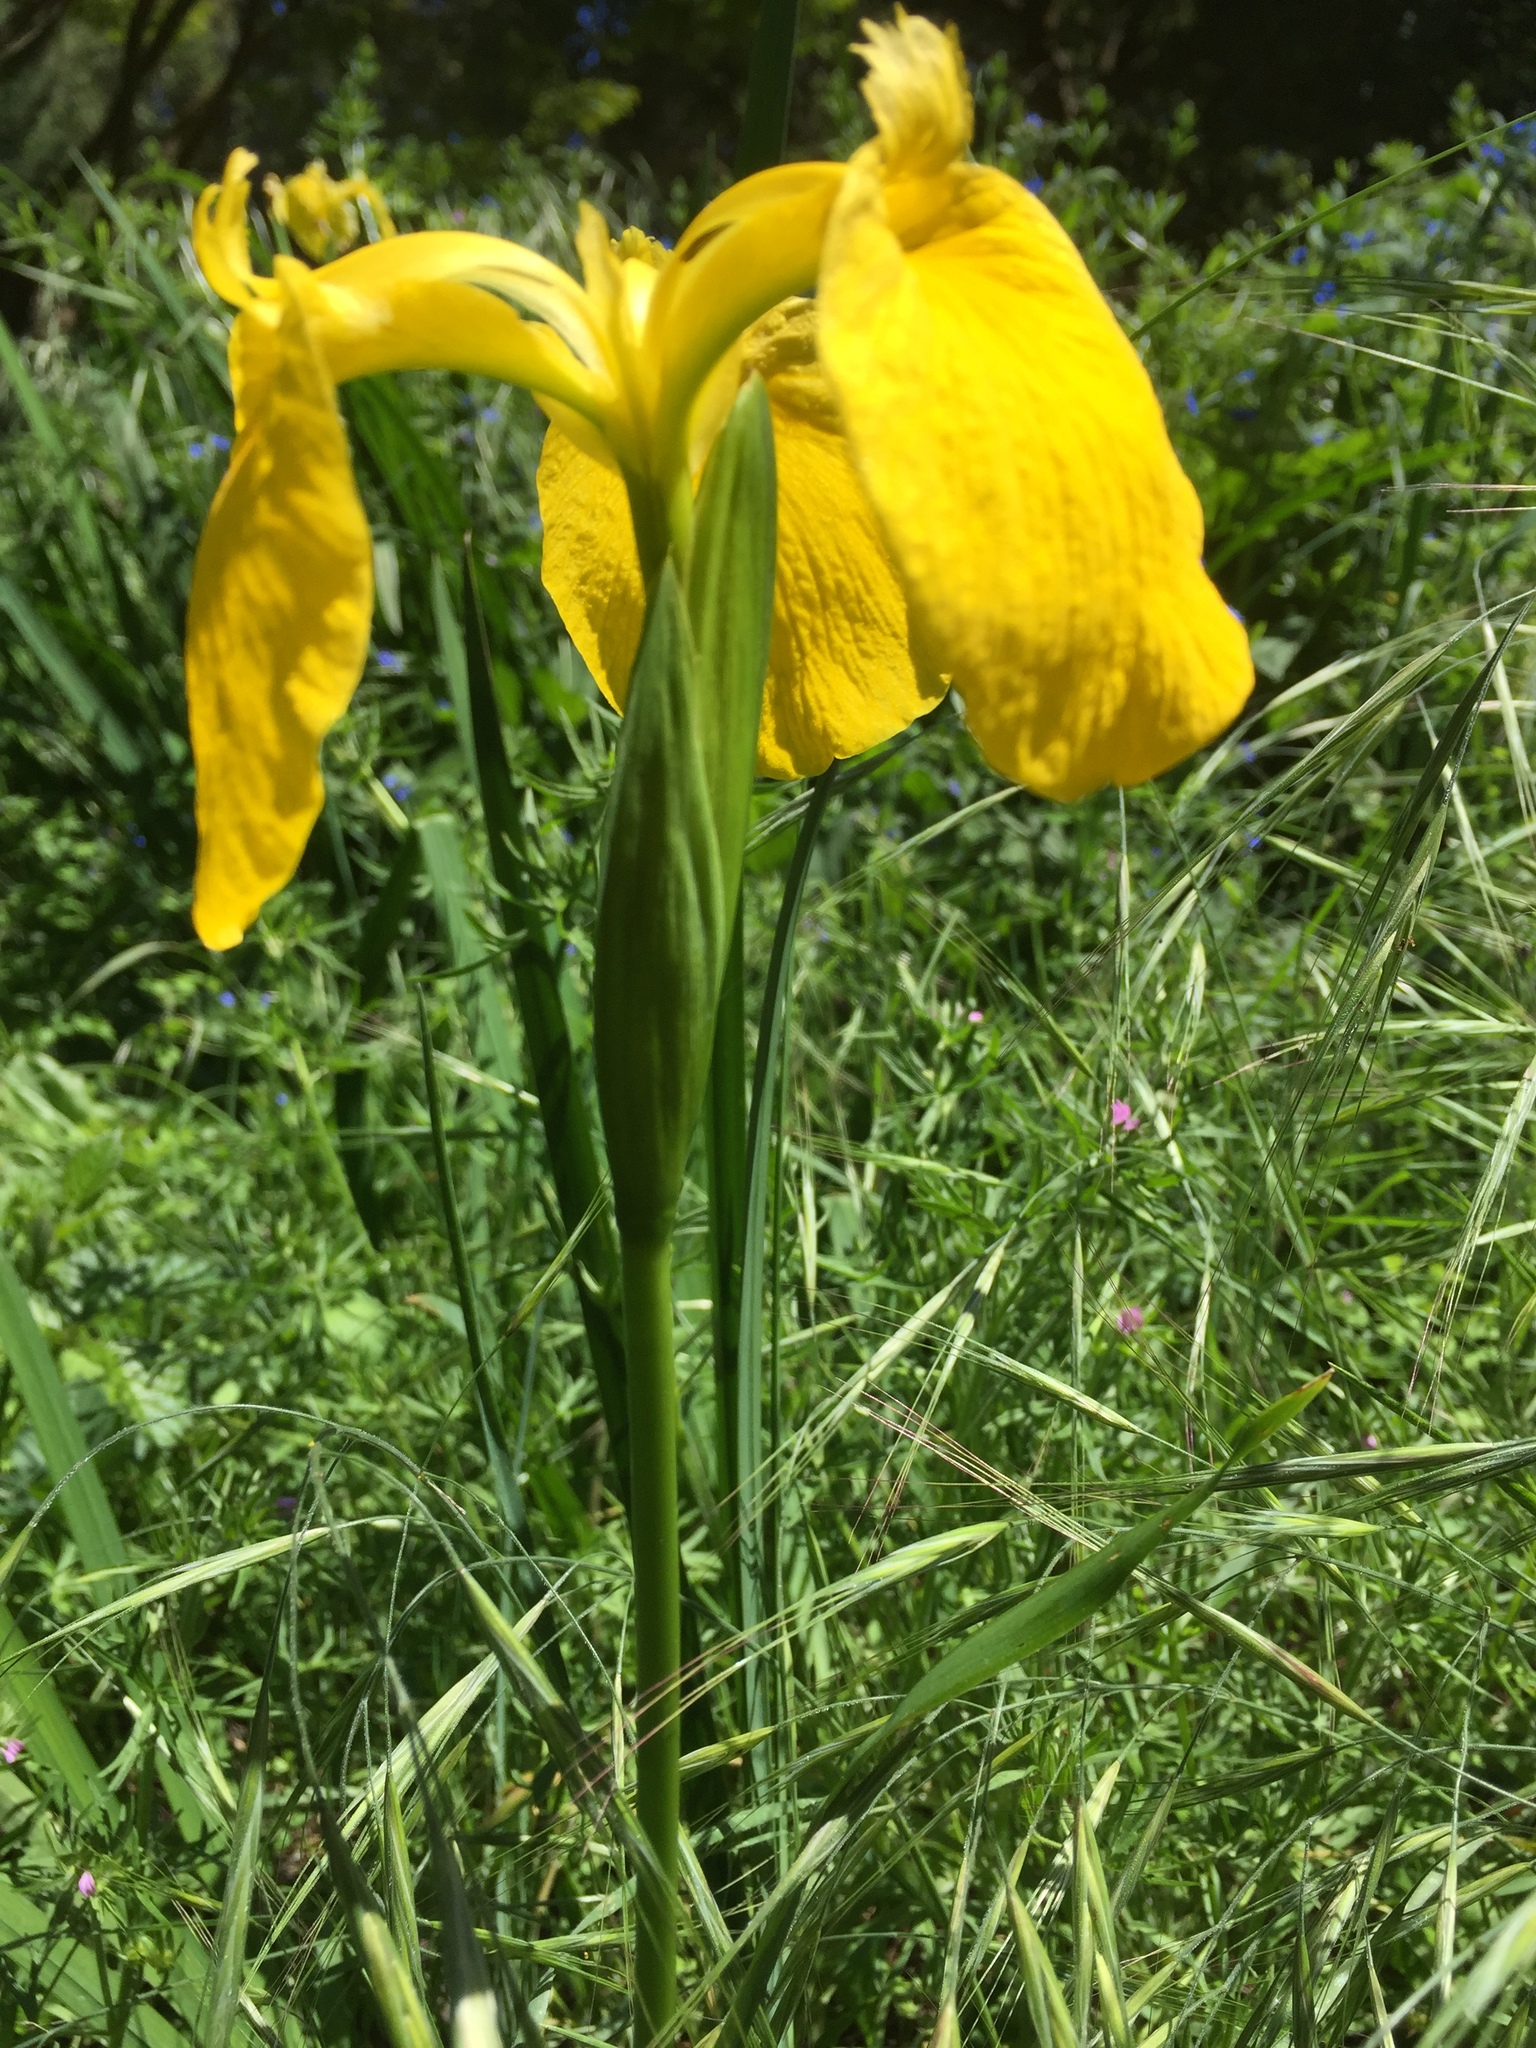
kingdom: Plantae
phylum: Tracheophyta
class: Liliopsida
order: Asparagales
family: Iridaceae
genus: Iris
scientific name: Iris pseudacorus
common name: Yellow flag
